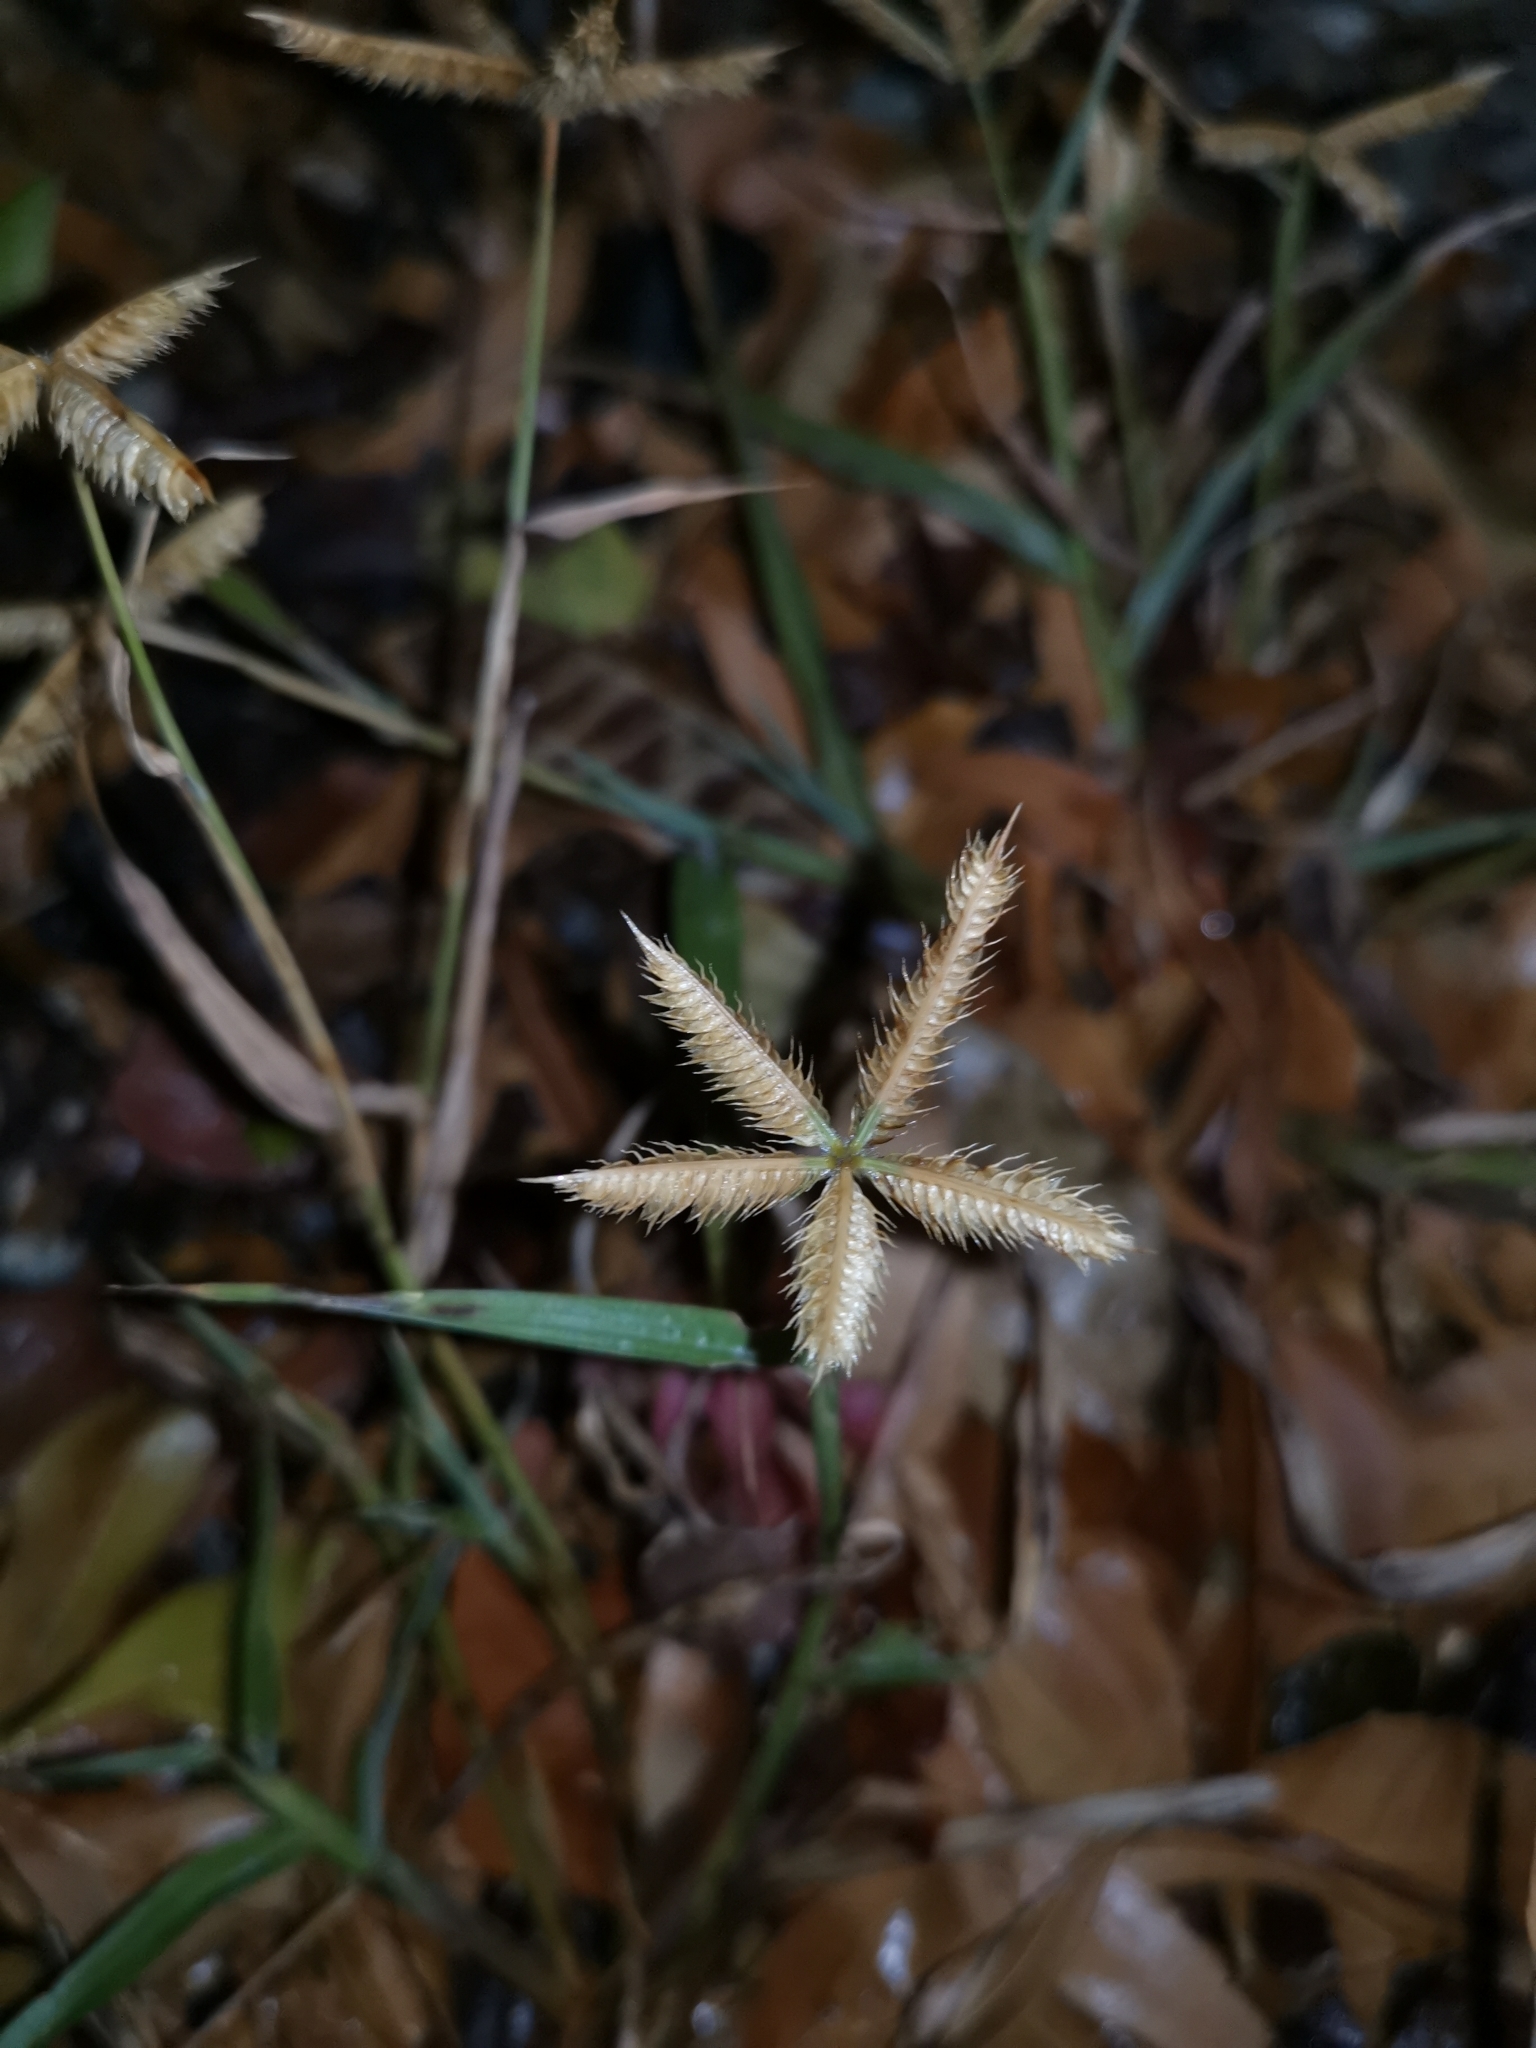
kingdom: Plantae
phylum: Tracheophyta
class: Liliopsida
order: Poales
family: Poaceae
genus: Dactyloctenium
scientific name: Dactyloctenium aegyptium
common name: Egyptian grass
